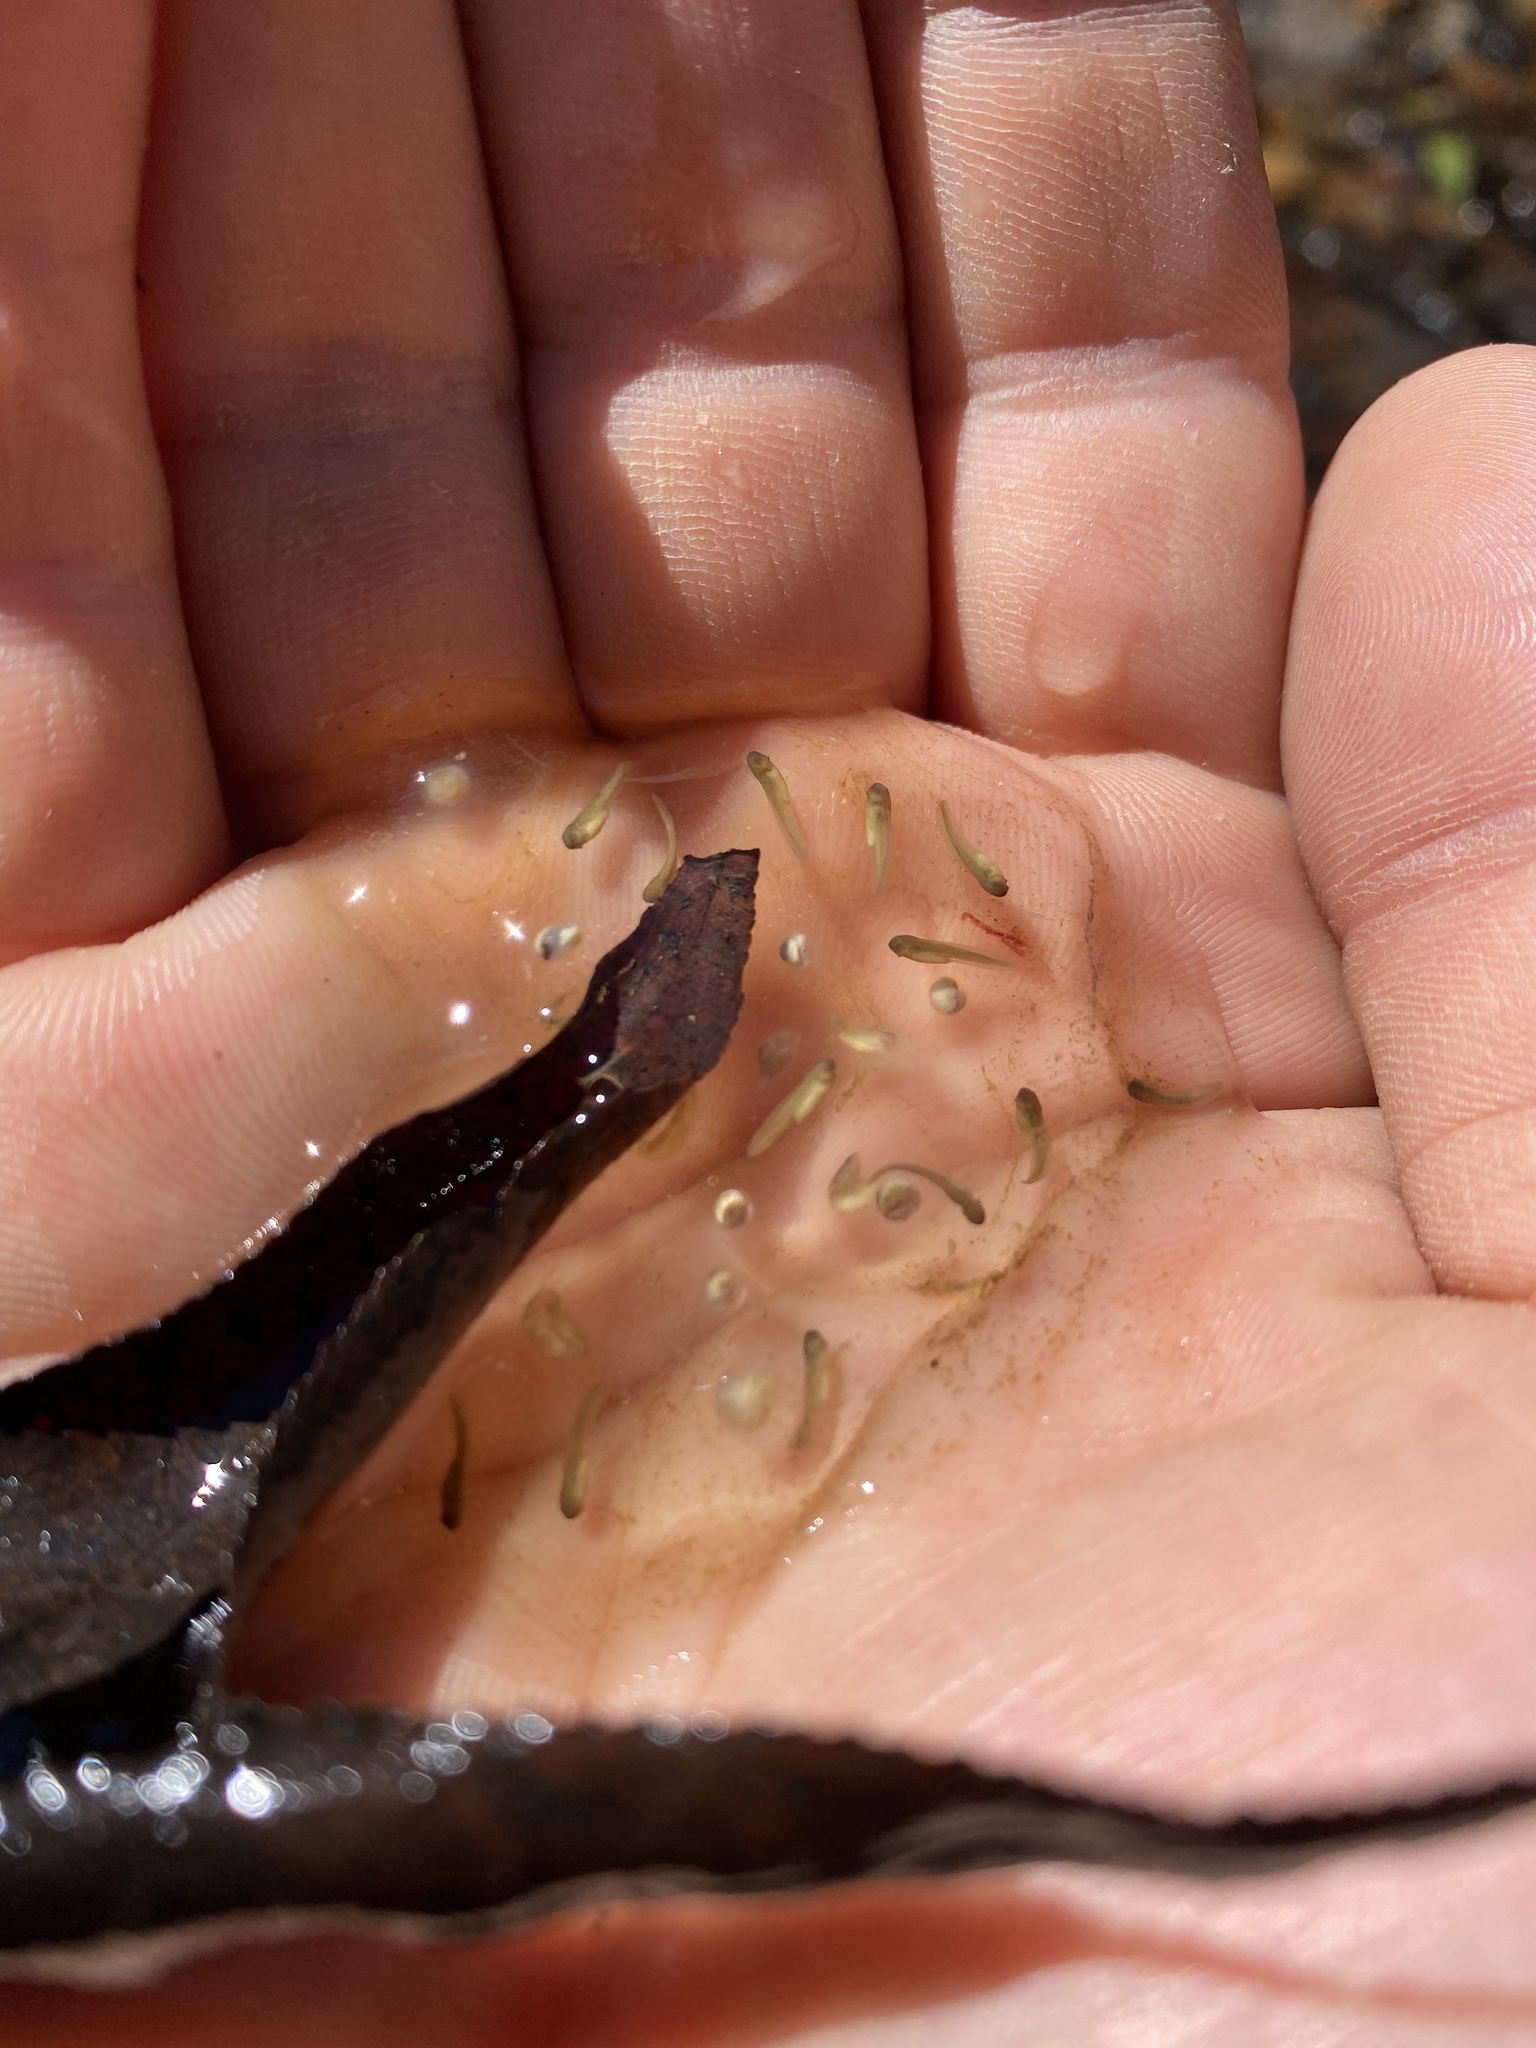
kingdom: Animalia
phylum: Chordata
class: Amphibia
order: Anura
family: Hylidae
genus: Pseudacris
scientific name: Pseudacris feriarum
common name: Upland chorus frog
